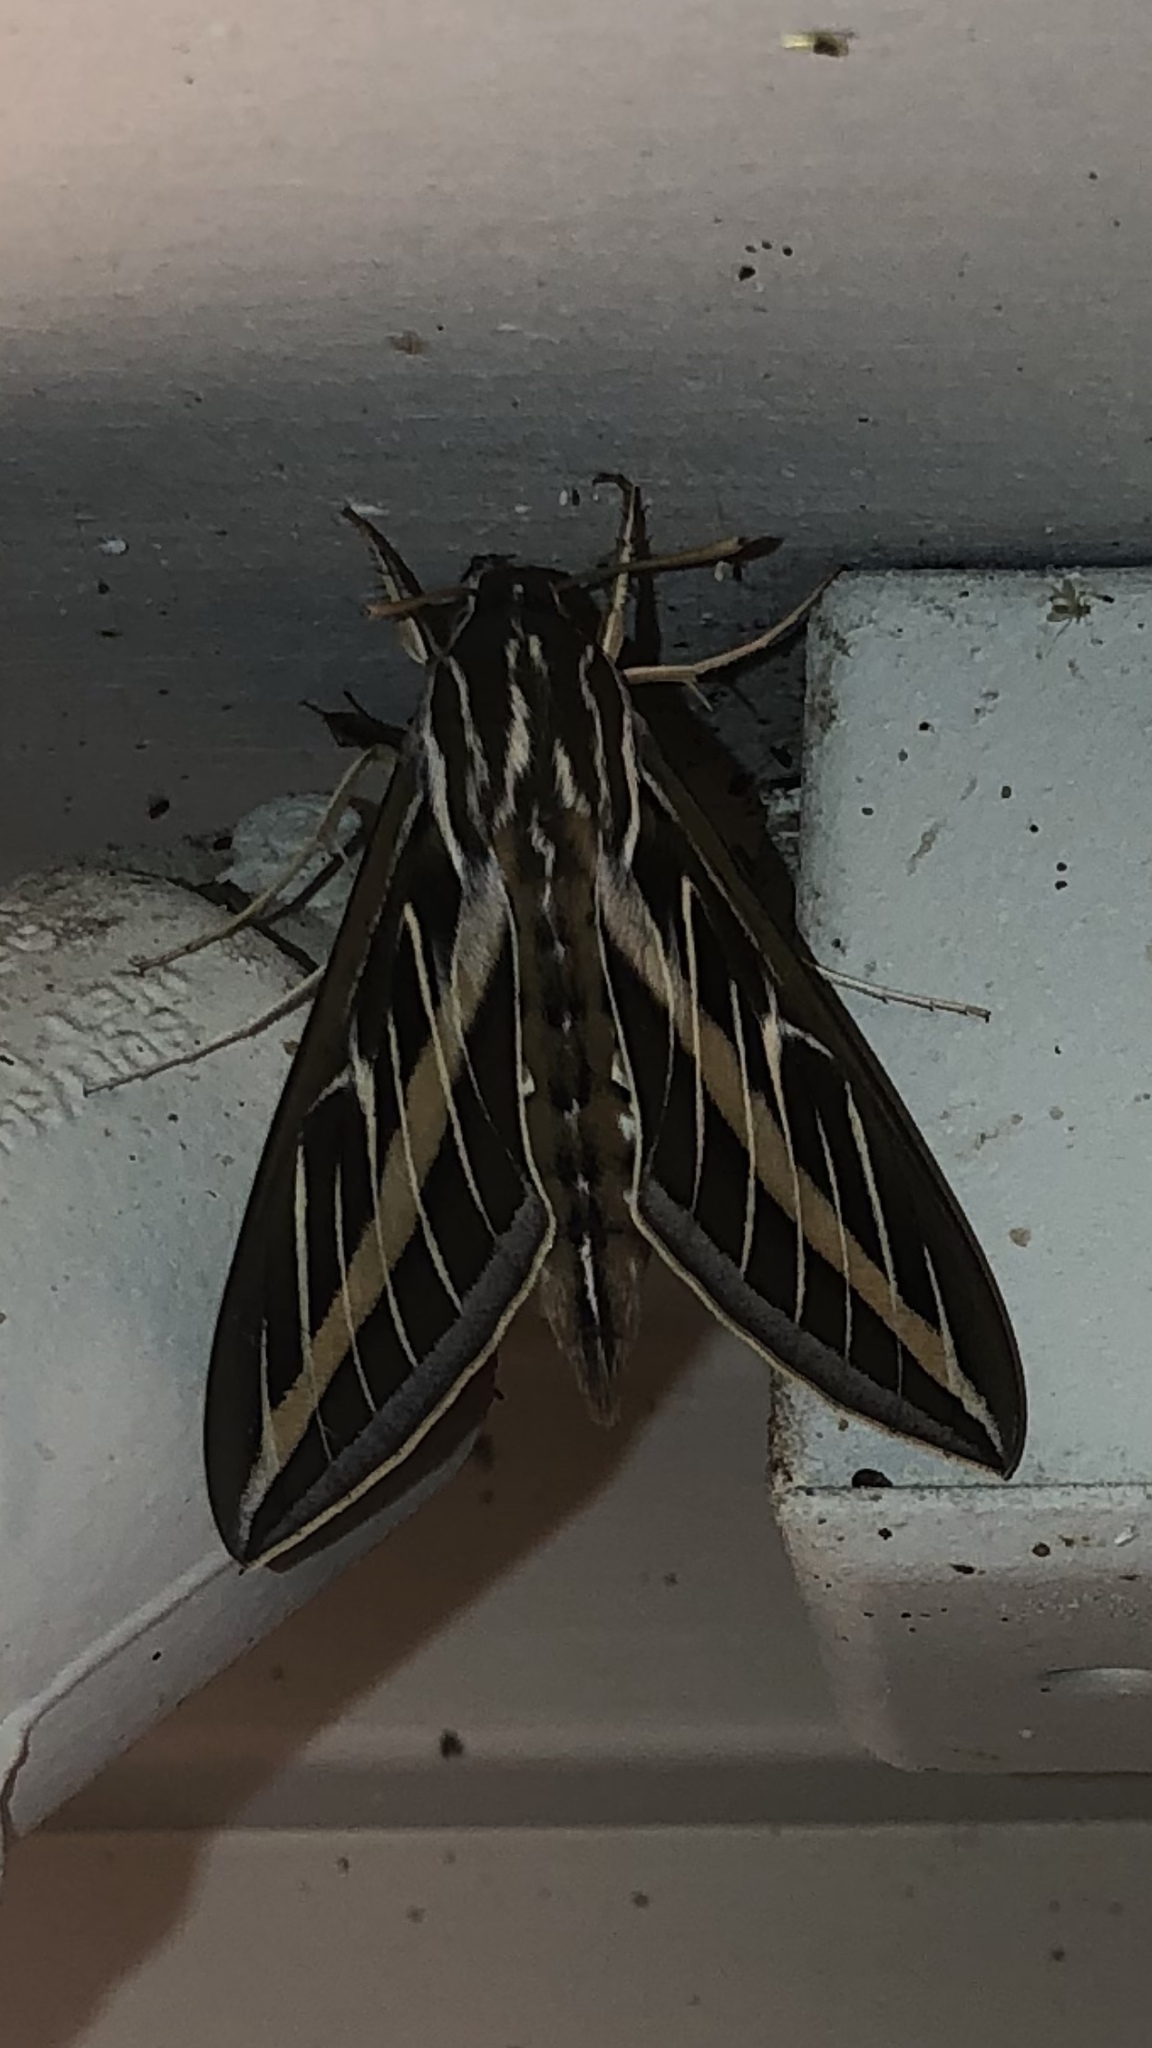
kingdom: Animalia
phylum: Arthropoda
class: Insecta
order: Lepidoptera
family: Sphingidae
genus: Hyles
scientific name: Hyles lineata
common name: White-lined sphinx
